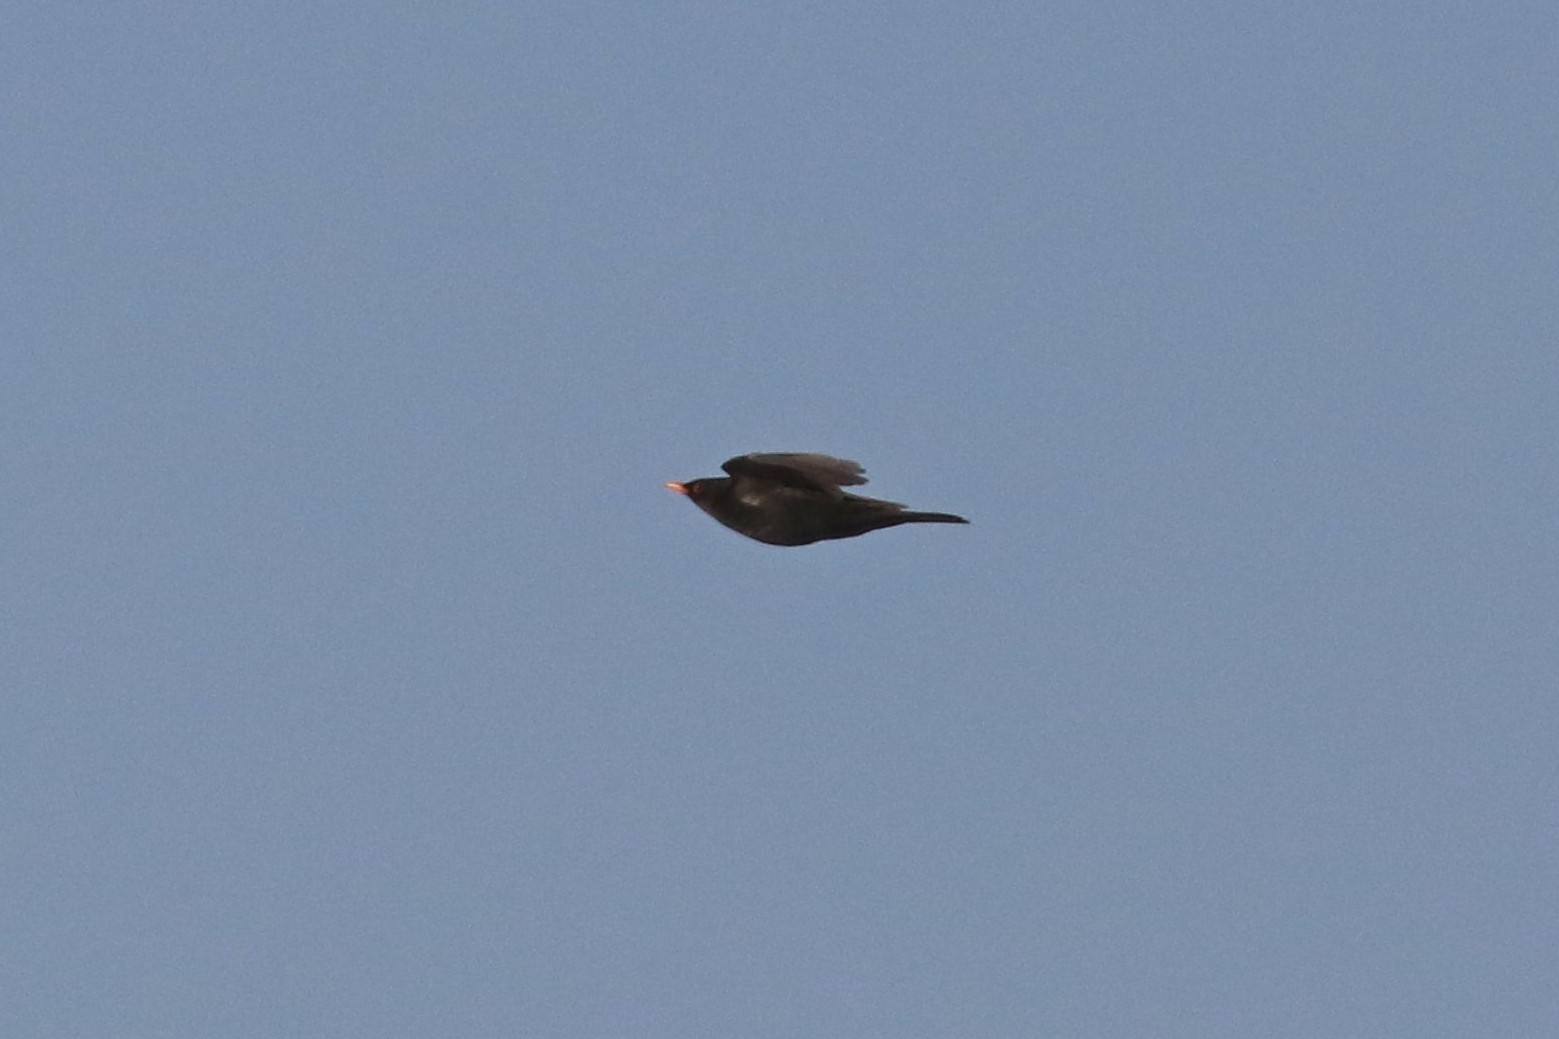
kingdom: Animalia
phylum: Chordata
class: Aves
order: Passeriformes
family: Turdidae
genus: Turdus
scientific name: Turdus merula
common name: Common blackbird
